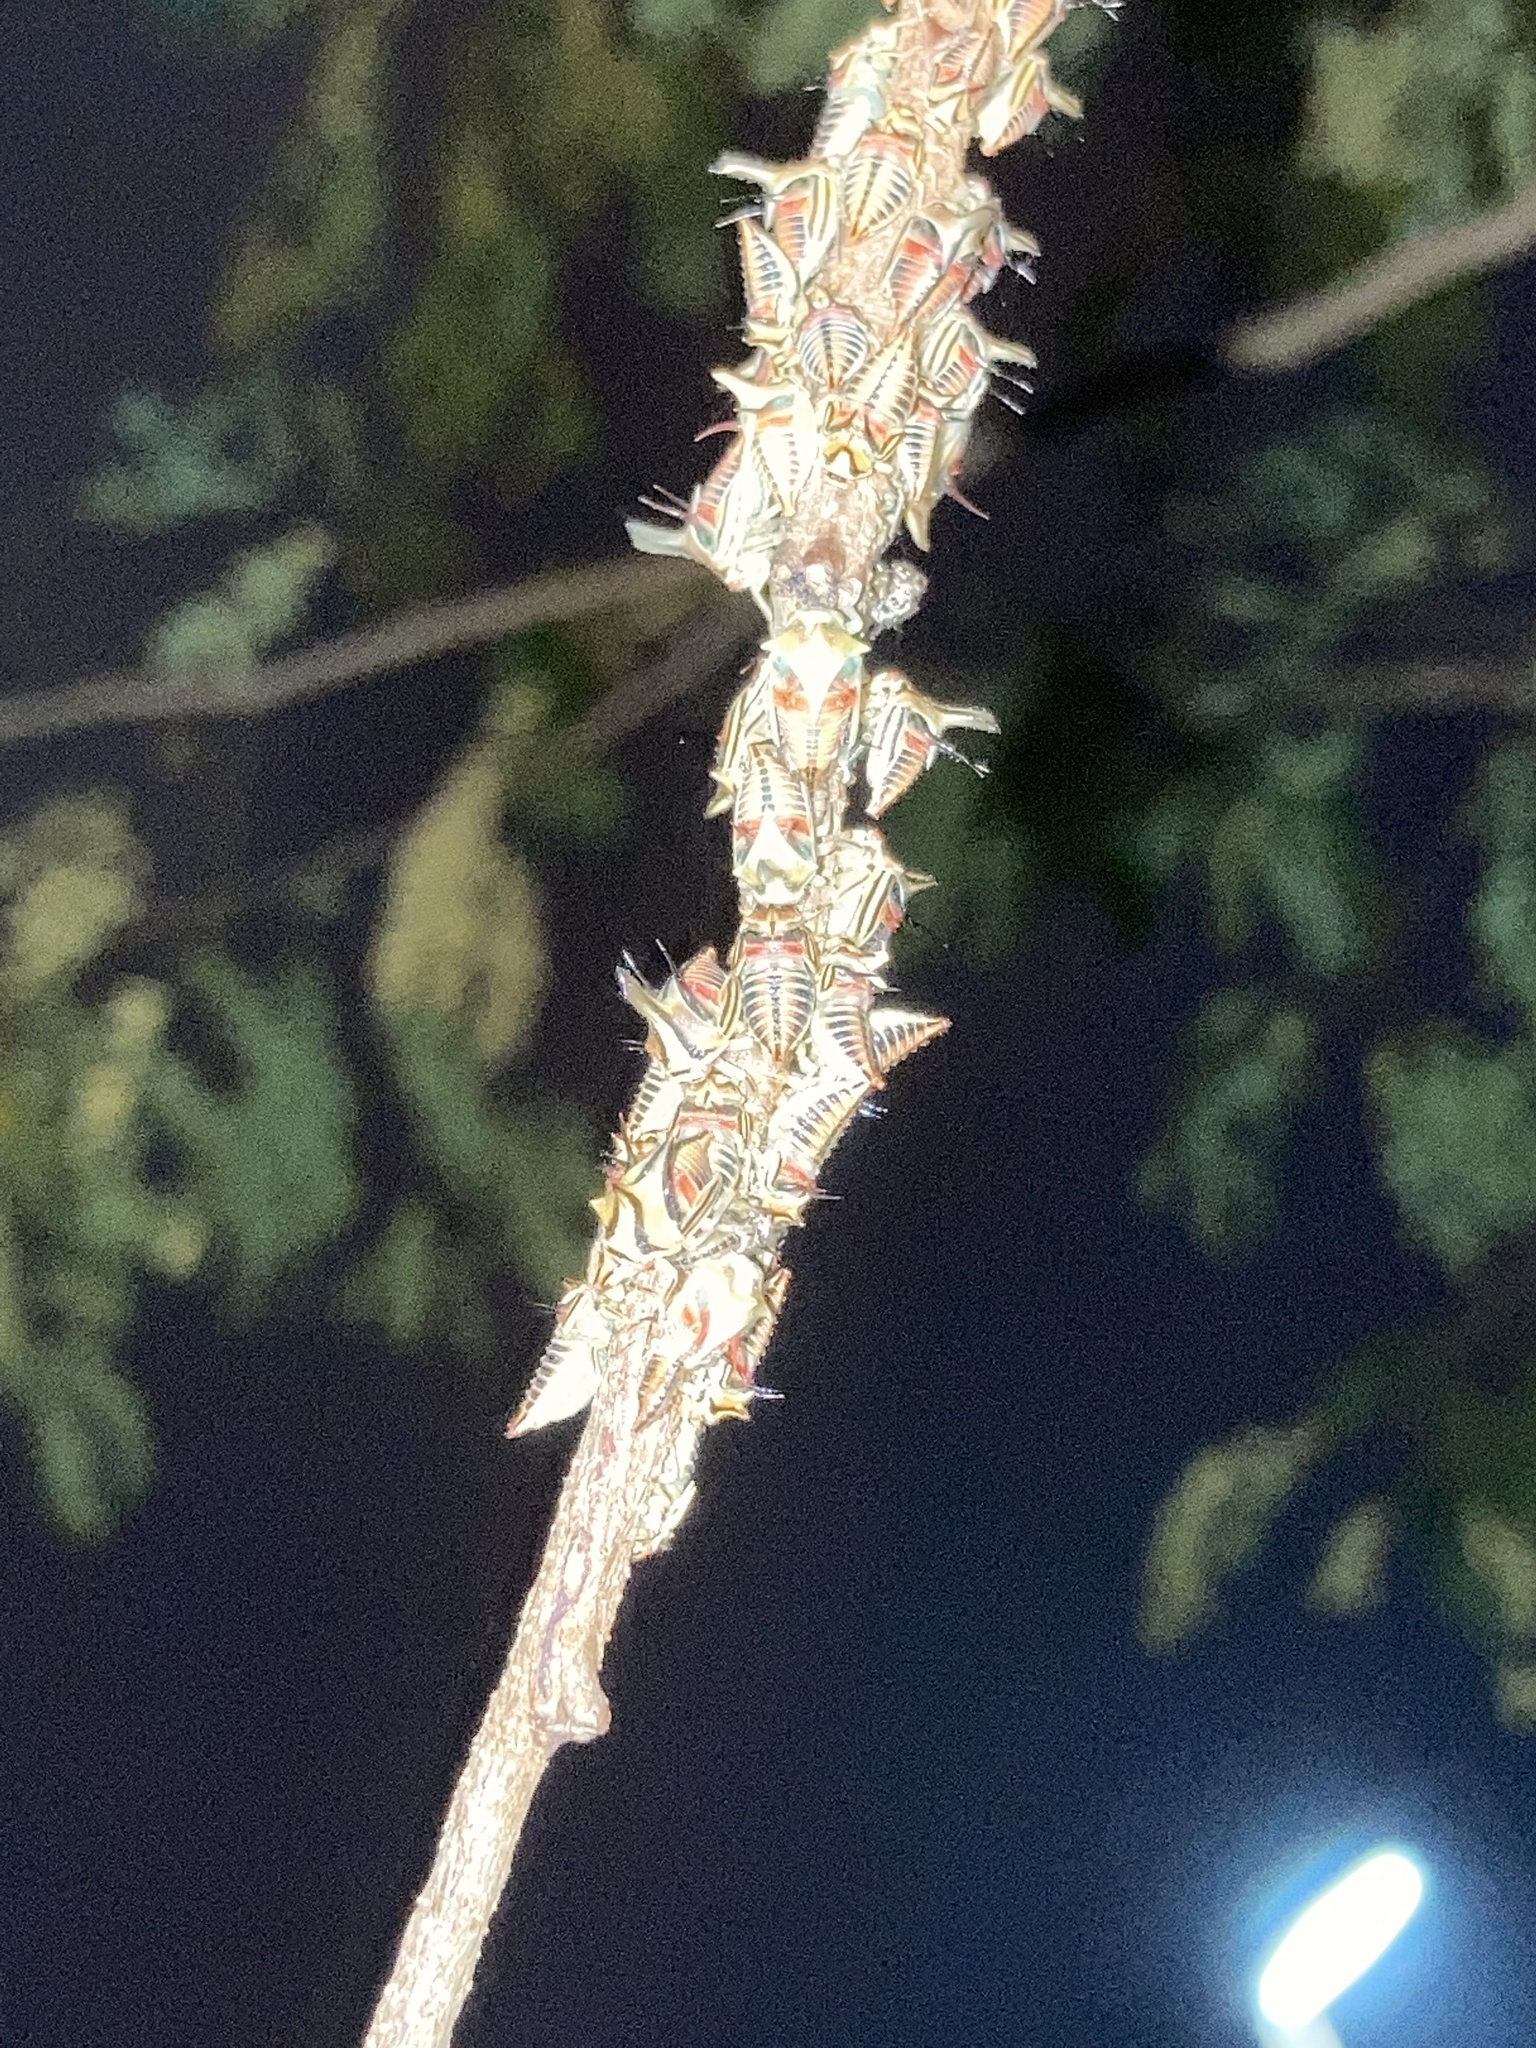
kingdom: Animalia
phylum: Arthropoda
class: Insecta
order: Hemiptera
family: Membracidae
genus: Umbonia
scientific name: Umbonia crassicornis
